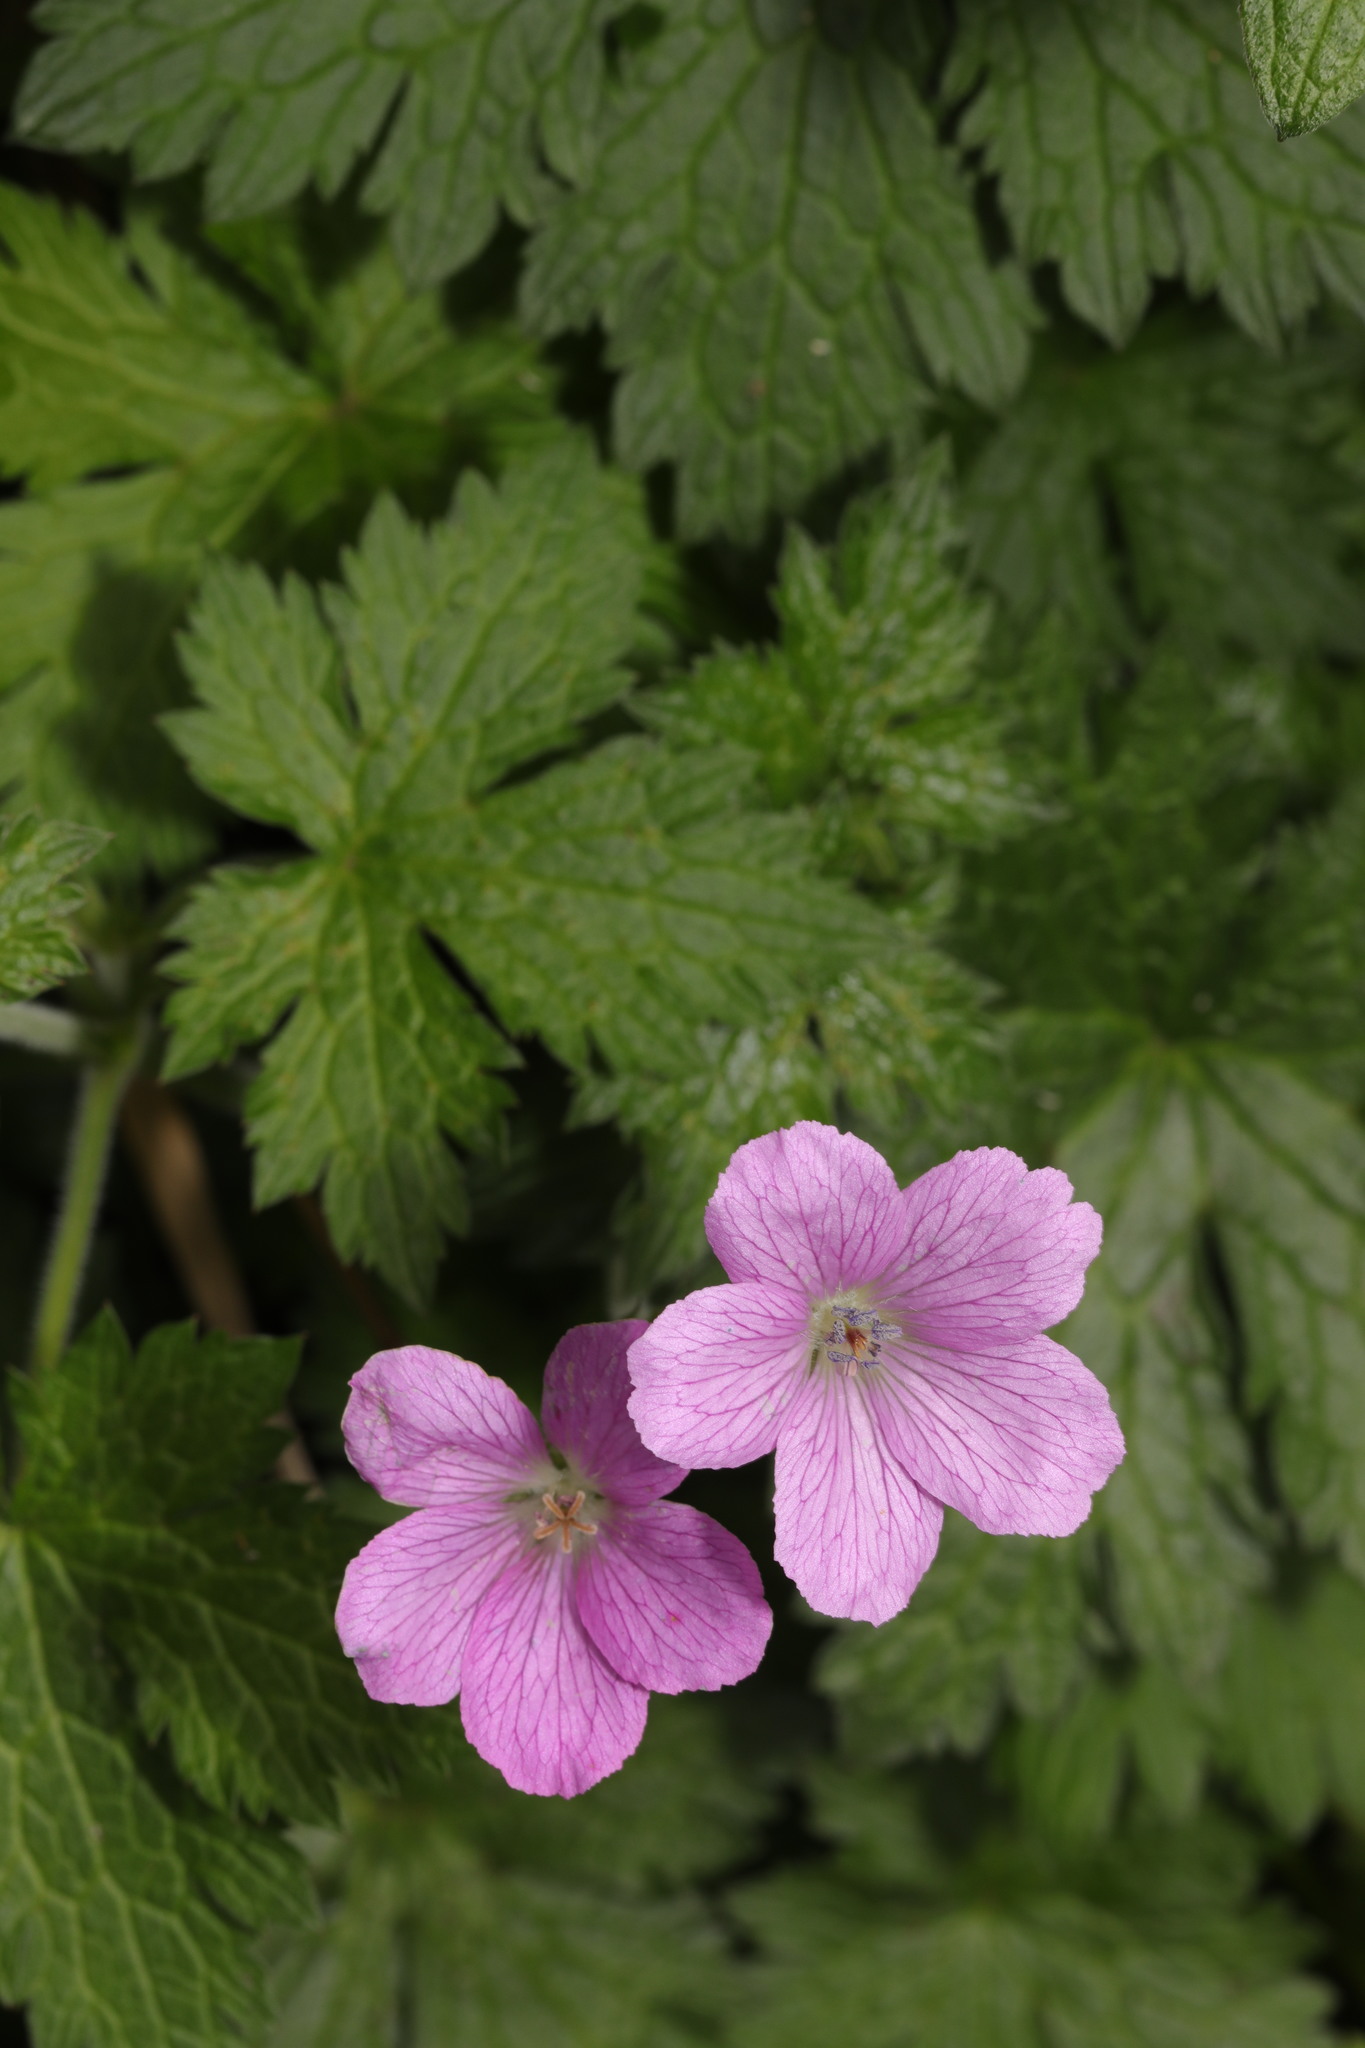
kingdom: Plantae
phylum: Tracheophyta
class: Magnoliopsida
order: Geraniales
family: Geraniaceae
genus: Geranium
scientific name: Geranium oxonianum
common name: Druce's crane's-bill
